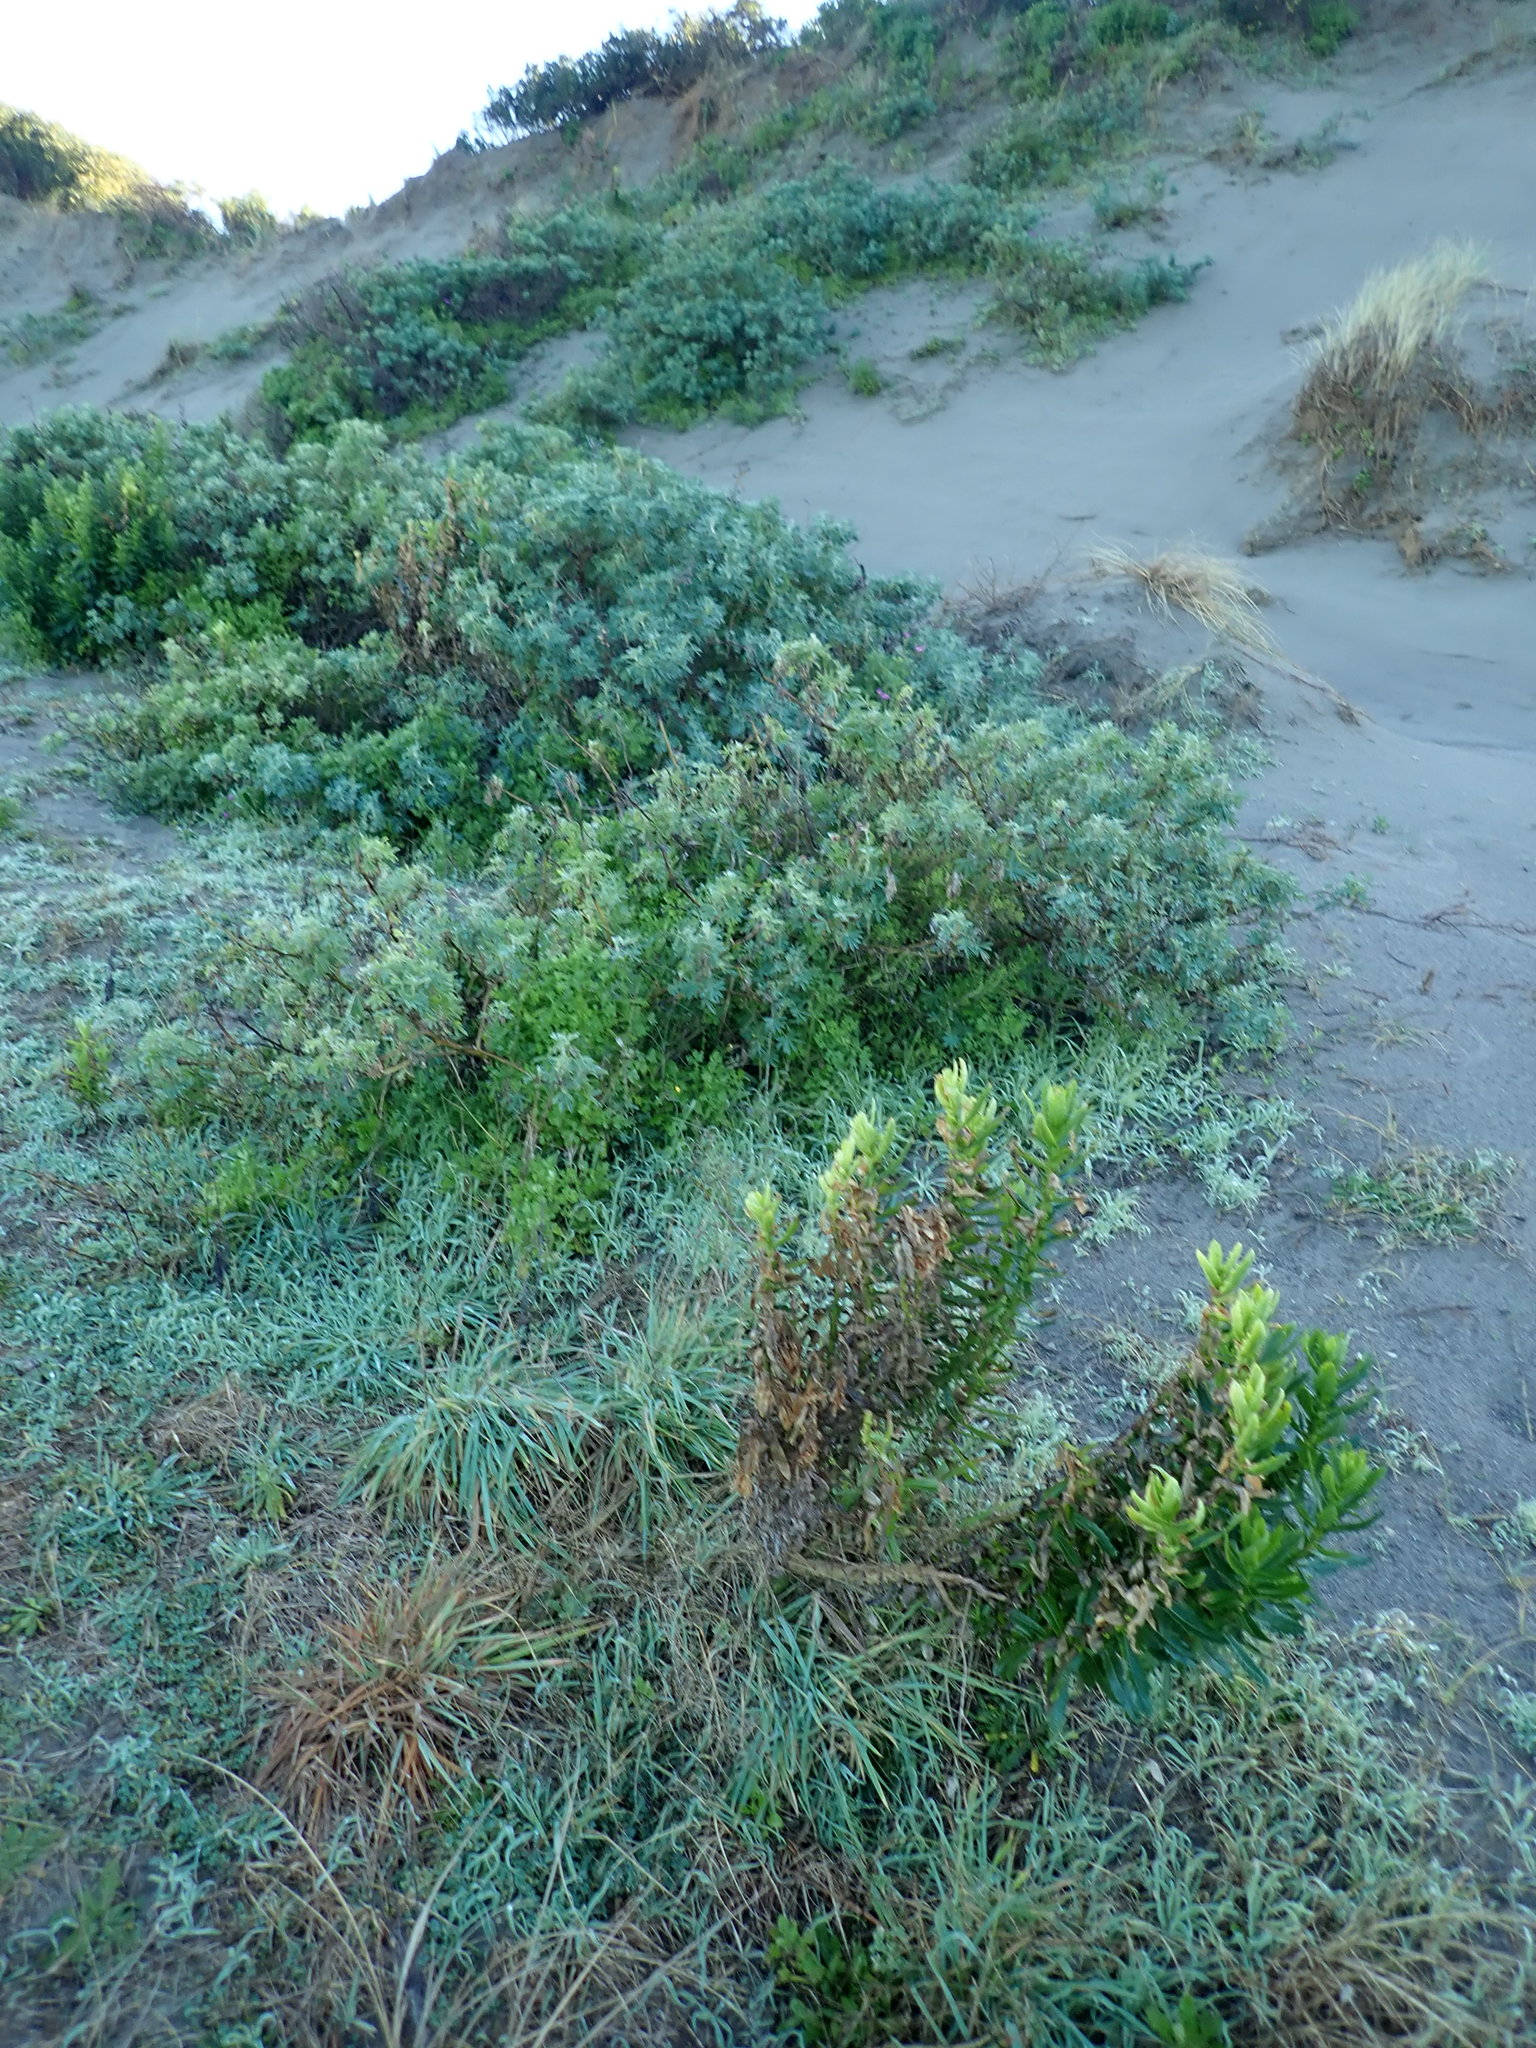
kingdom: Plantae
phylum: Tracheophyta
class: Magnoliopsida
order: Fabales
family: Fabaceae
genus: Lupinus
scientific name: Lupinus arboreus
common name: Yellow bush lupine
